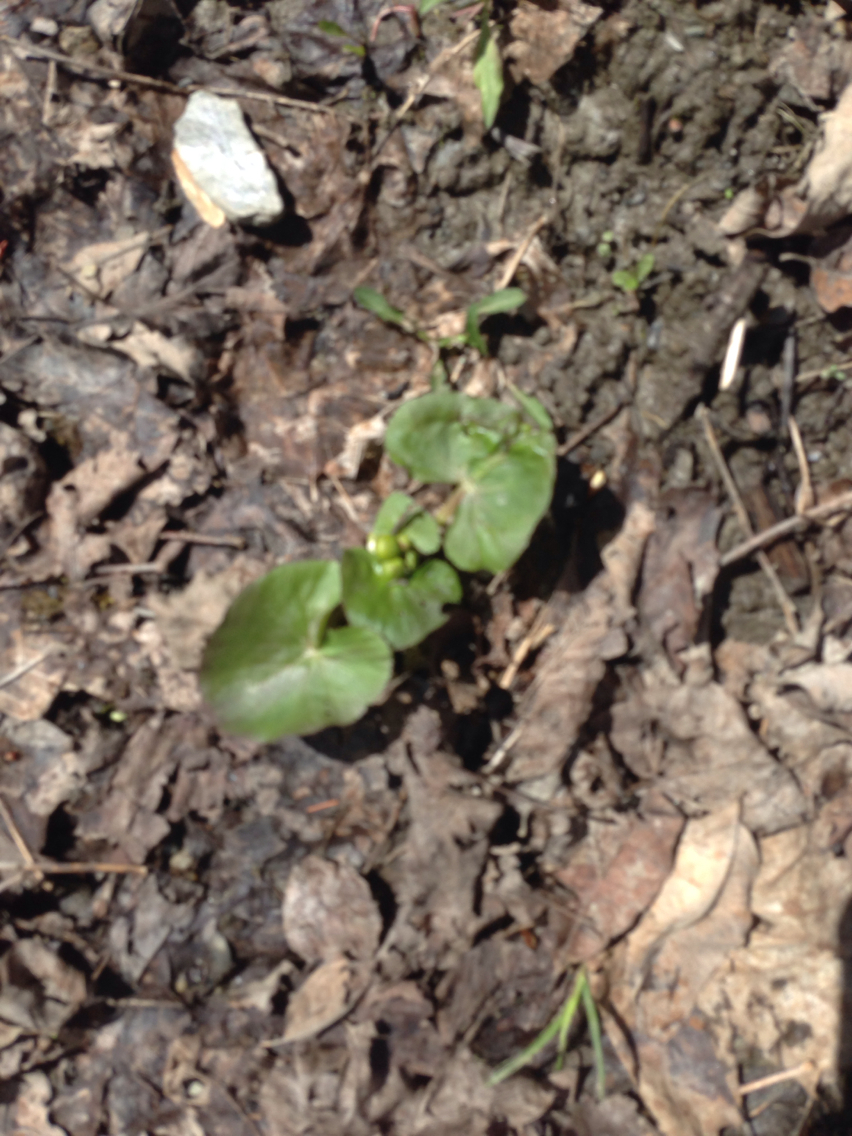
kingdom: Plantae
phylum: Tracheophyta
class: Magnoliopsida
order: Ranunculales
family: Ranunculaceae
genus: Caltha
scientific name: Caltha palustris
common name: Marsh marigold
